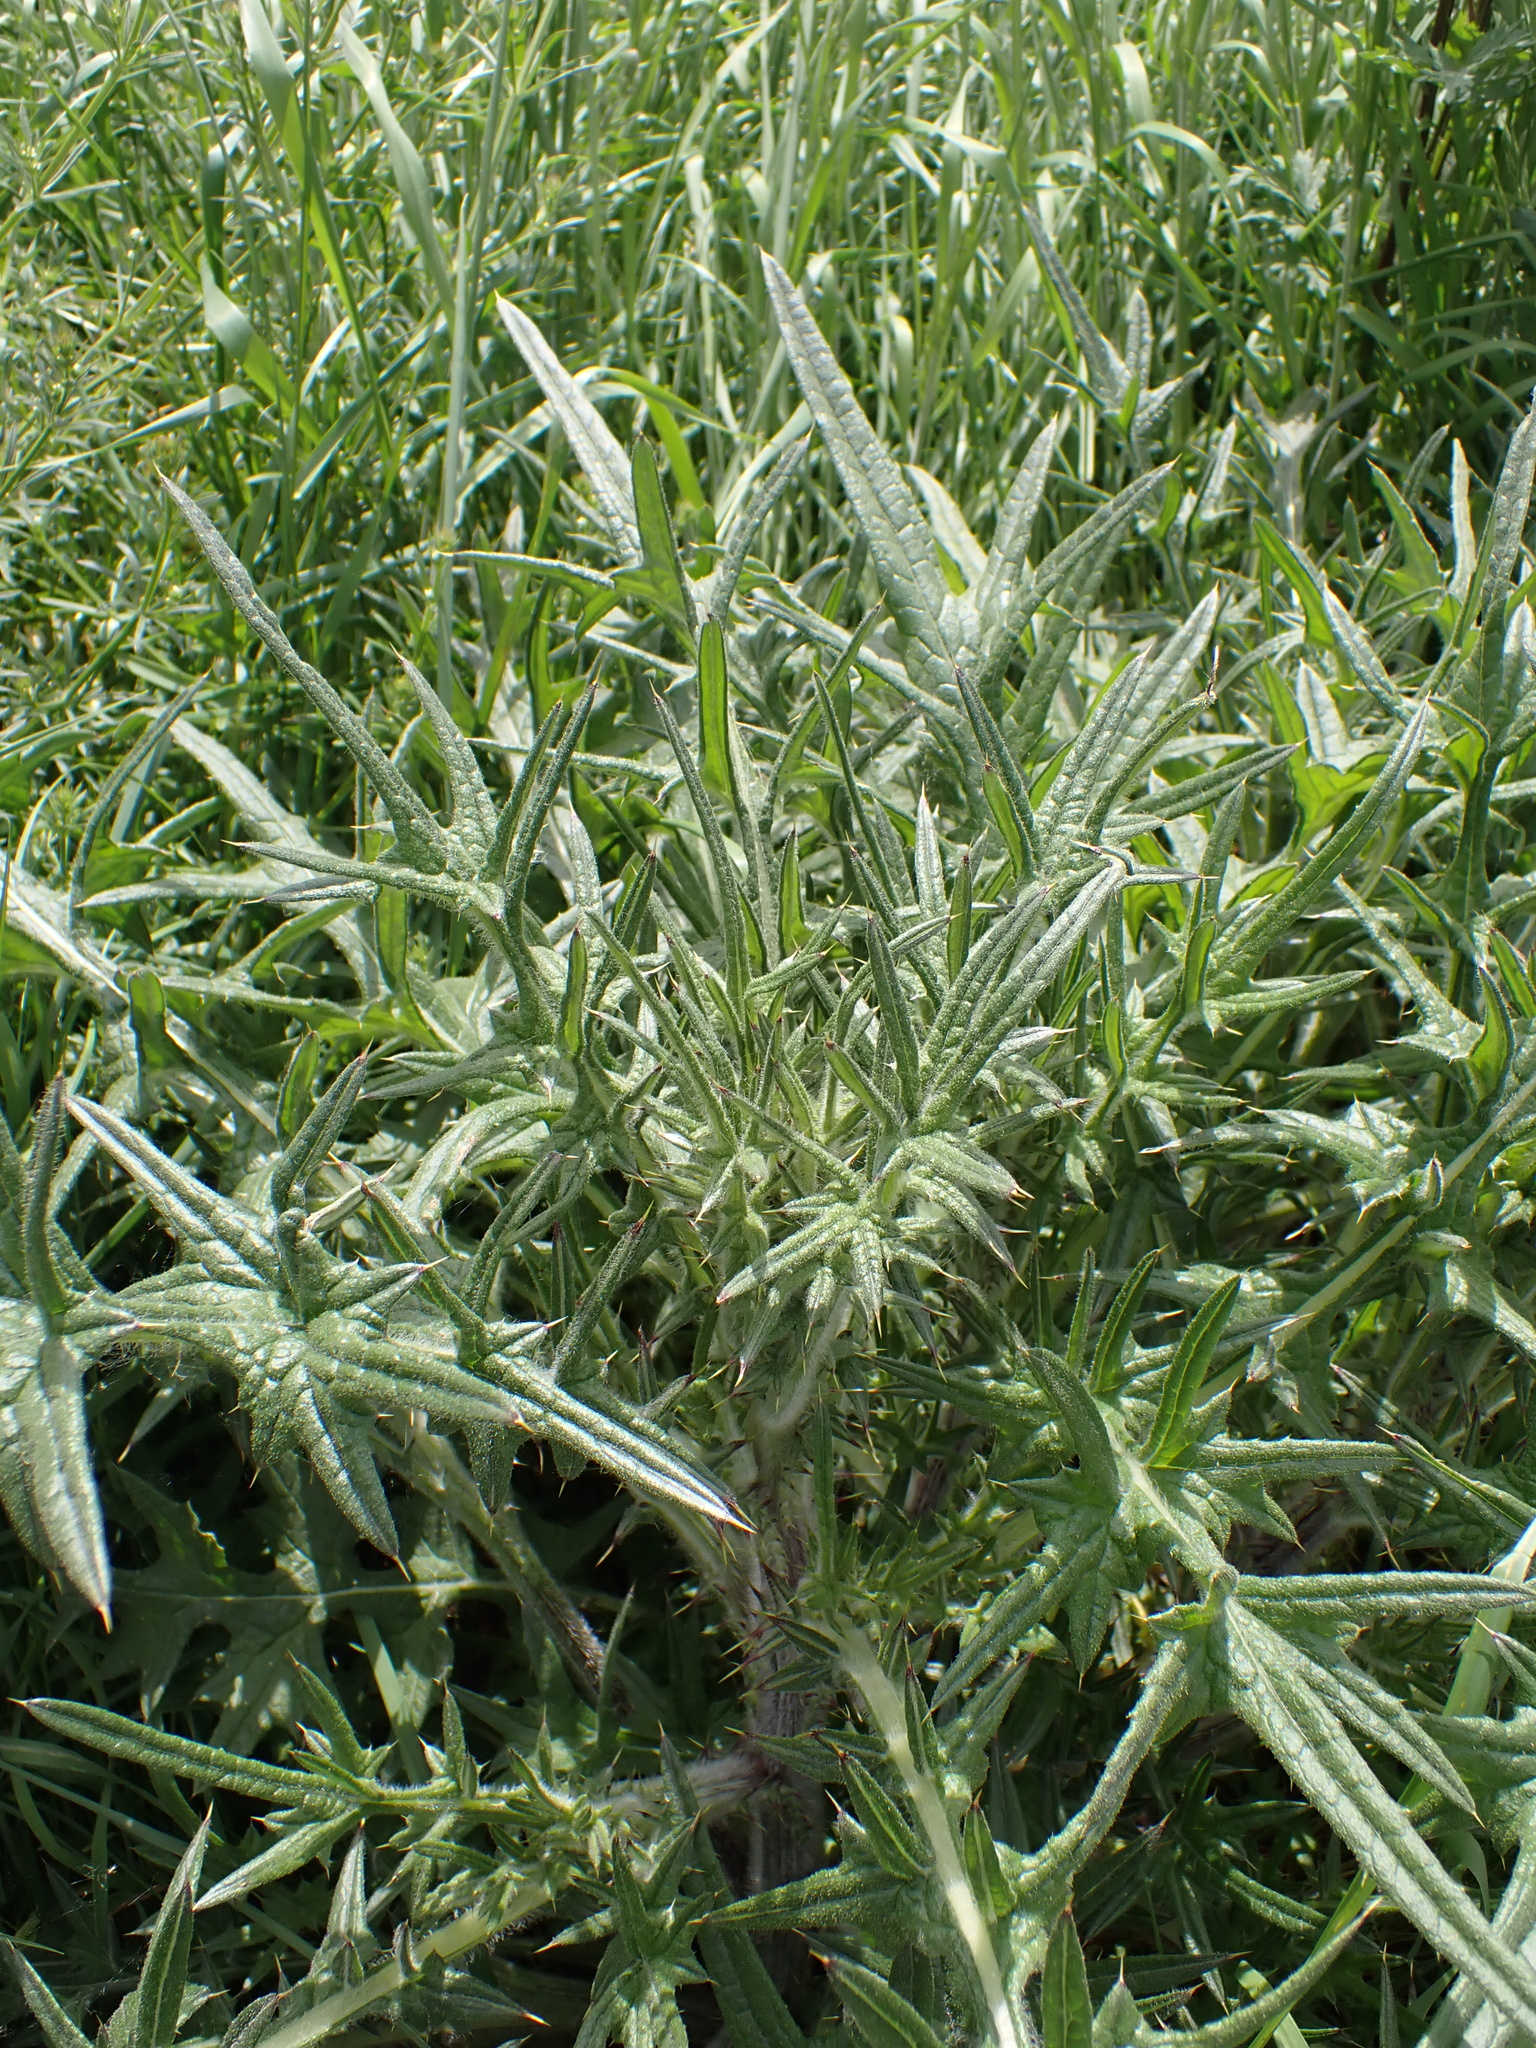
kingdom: Plantae
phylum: Tracheophyta
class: Magnoliopsida
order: Asterales
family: Asteraceae
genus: Cirsium
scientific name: Cirsium vulgare
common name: Bull thistle
